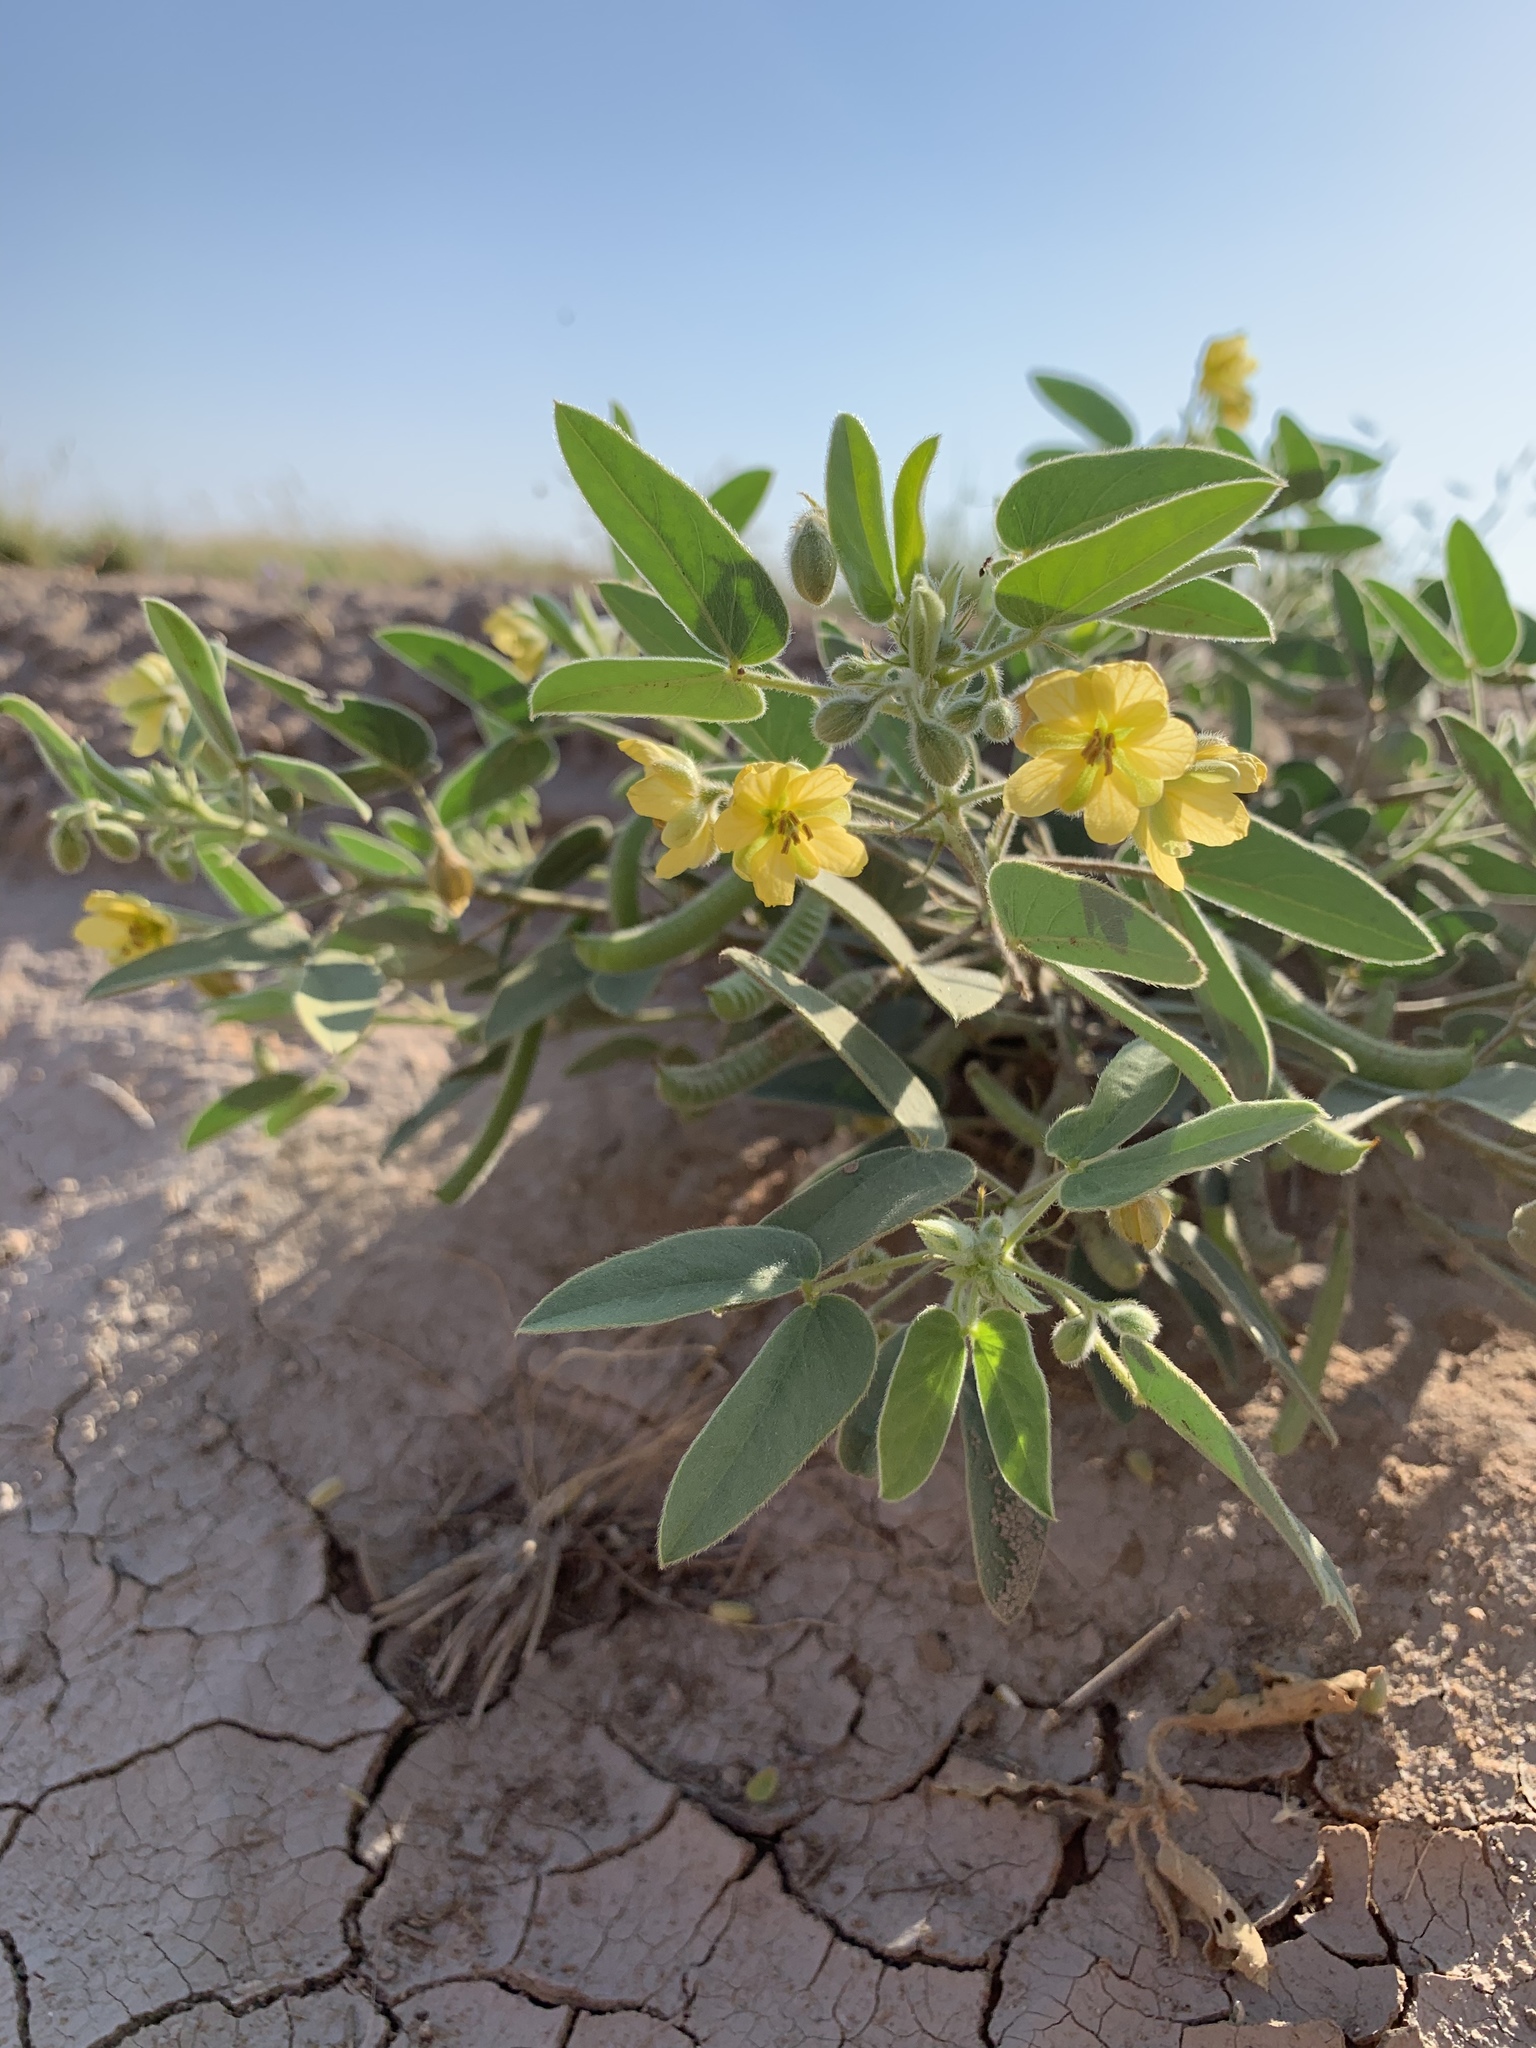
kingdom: Plantae
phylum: Tracheophyta
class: Magnoliopsida
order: Fabales
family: Fabaceae
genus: Senna
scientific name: Senna bauhinioides
